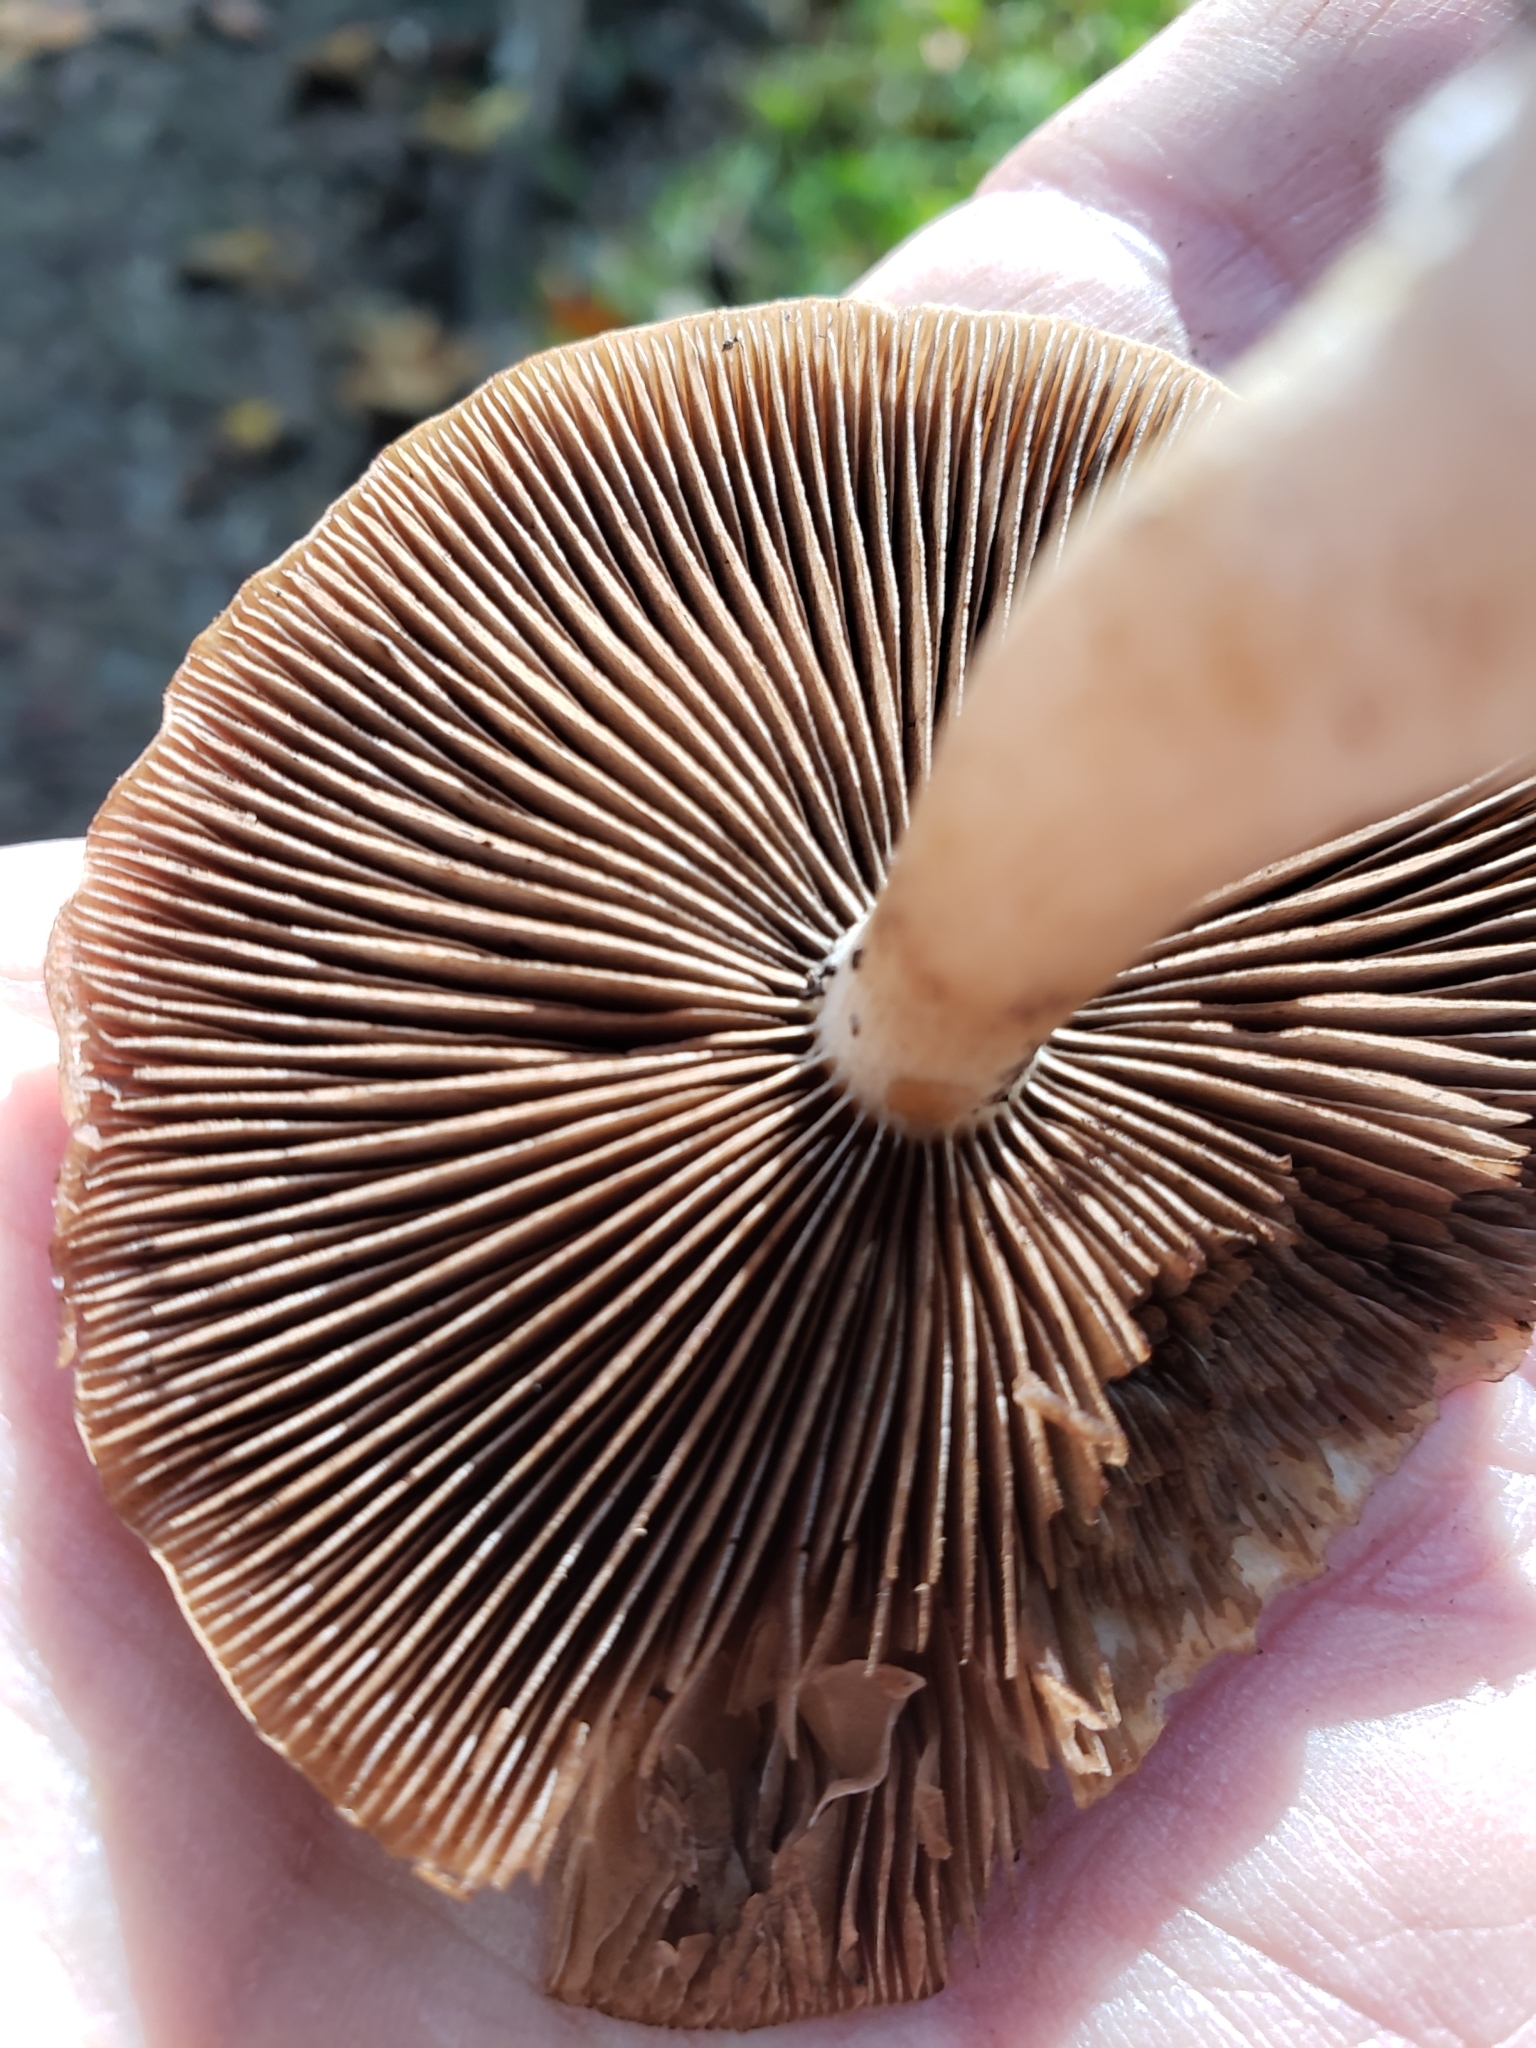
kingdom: Fungi
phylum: Basidiomycota
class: Agaricomycetes
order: Agaricales
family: Psathyrellaceae
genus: Typhrasa
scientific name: Typhrasa gossypina
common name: Wrinkled psathyrella
